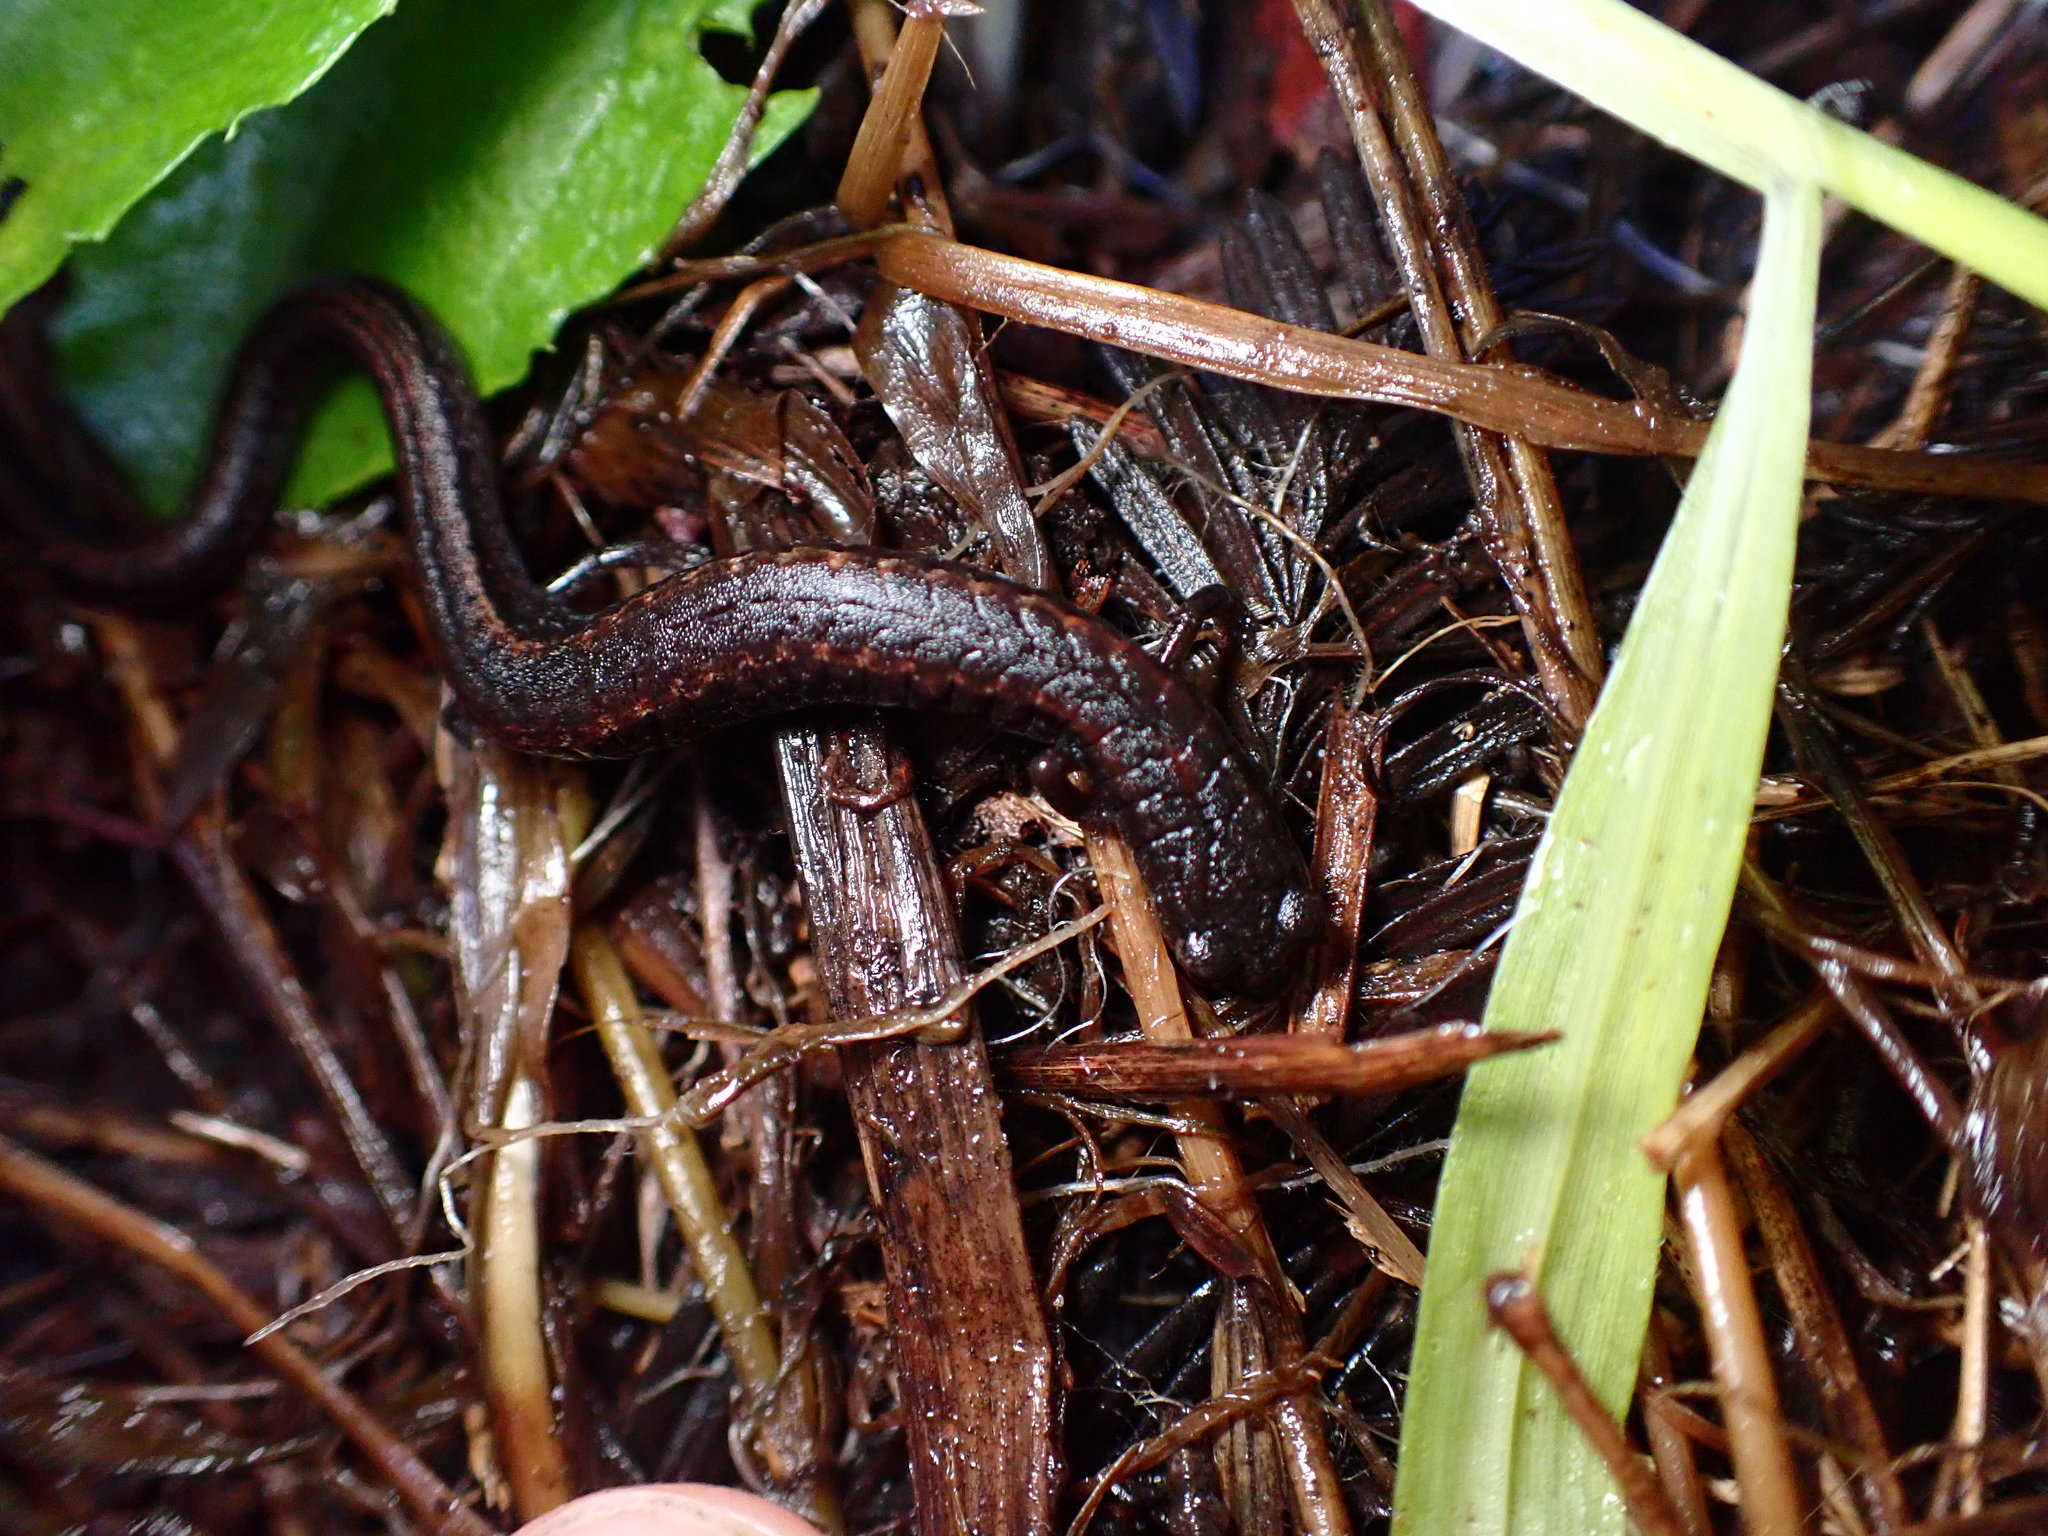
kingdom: Animalia
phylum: Chordata
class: Amphibia
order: Caudata
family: Plethodontidae
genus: Batrachoseps
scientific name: Batrachoseps attenuatus
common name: California slender salamander
